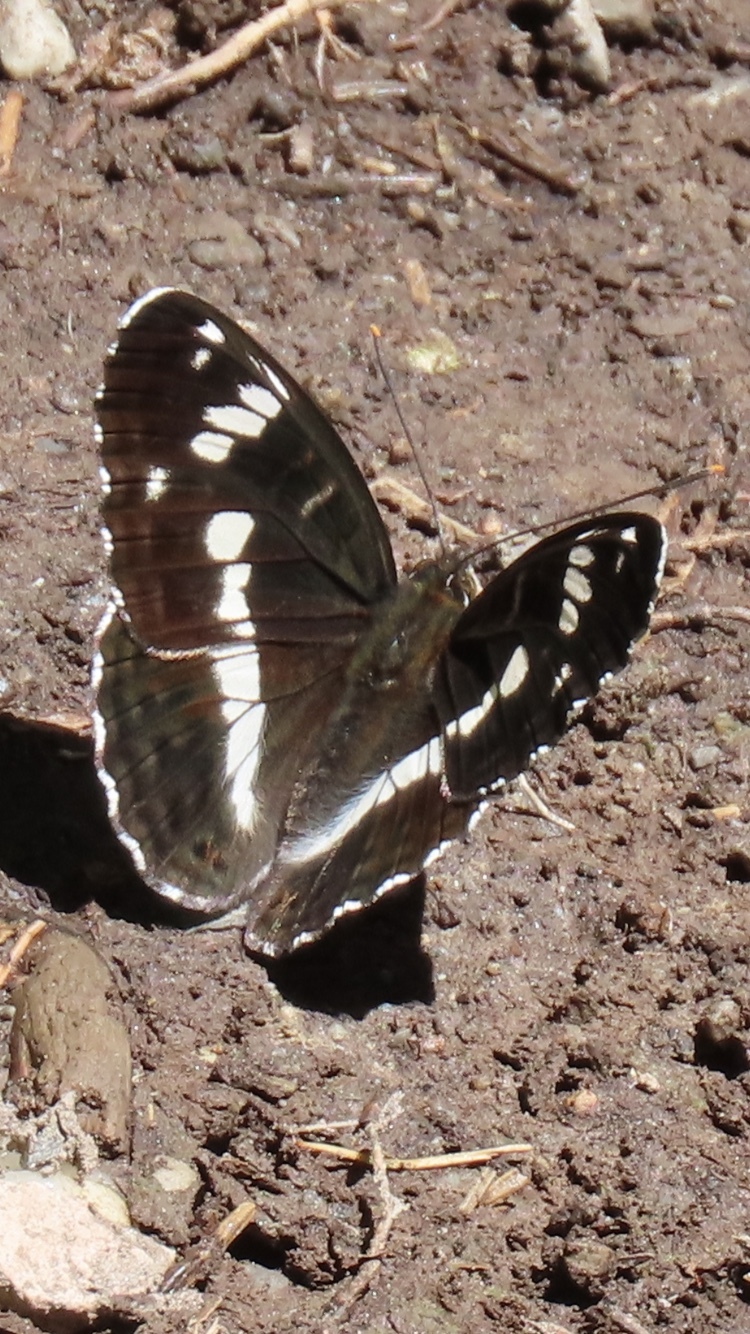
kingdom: Animalia
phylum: Arthropoda
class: Insecta
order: Lepidoptera
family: Nymphalidae
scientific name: Nymphalidae
